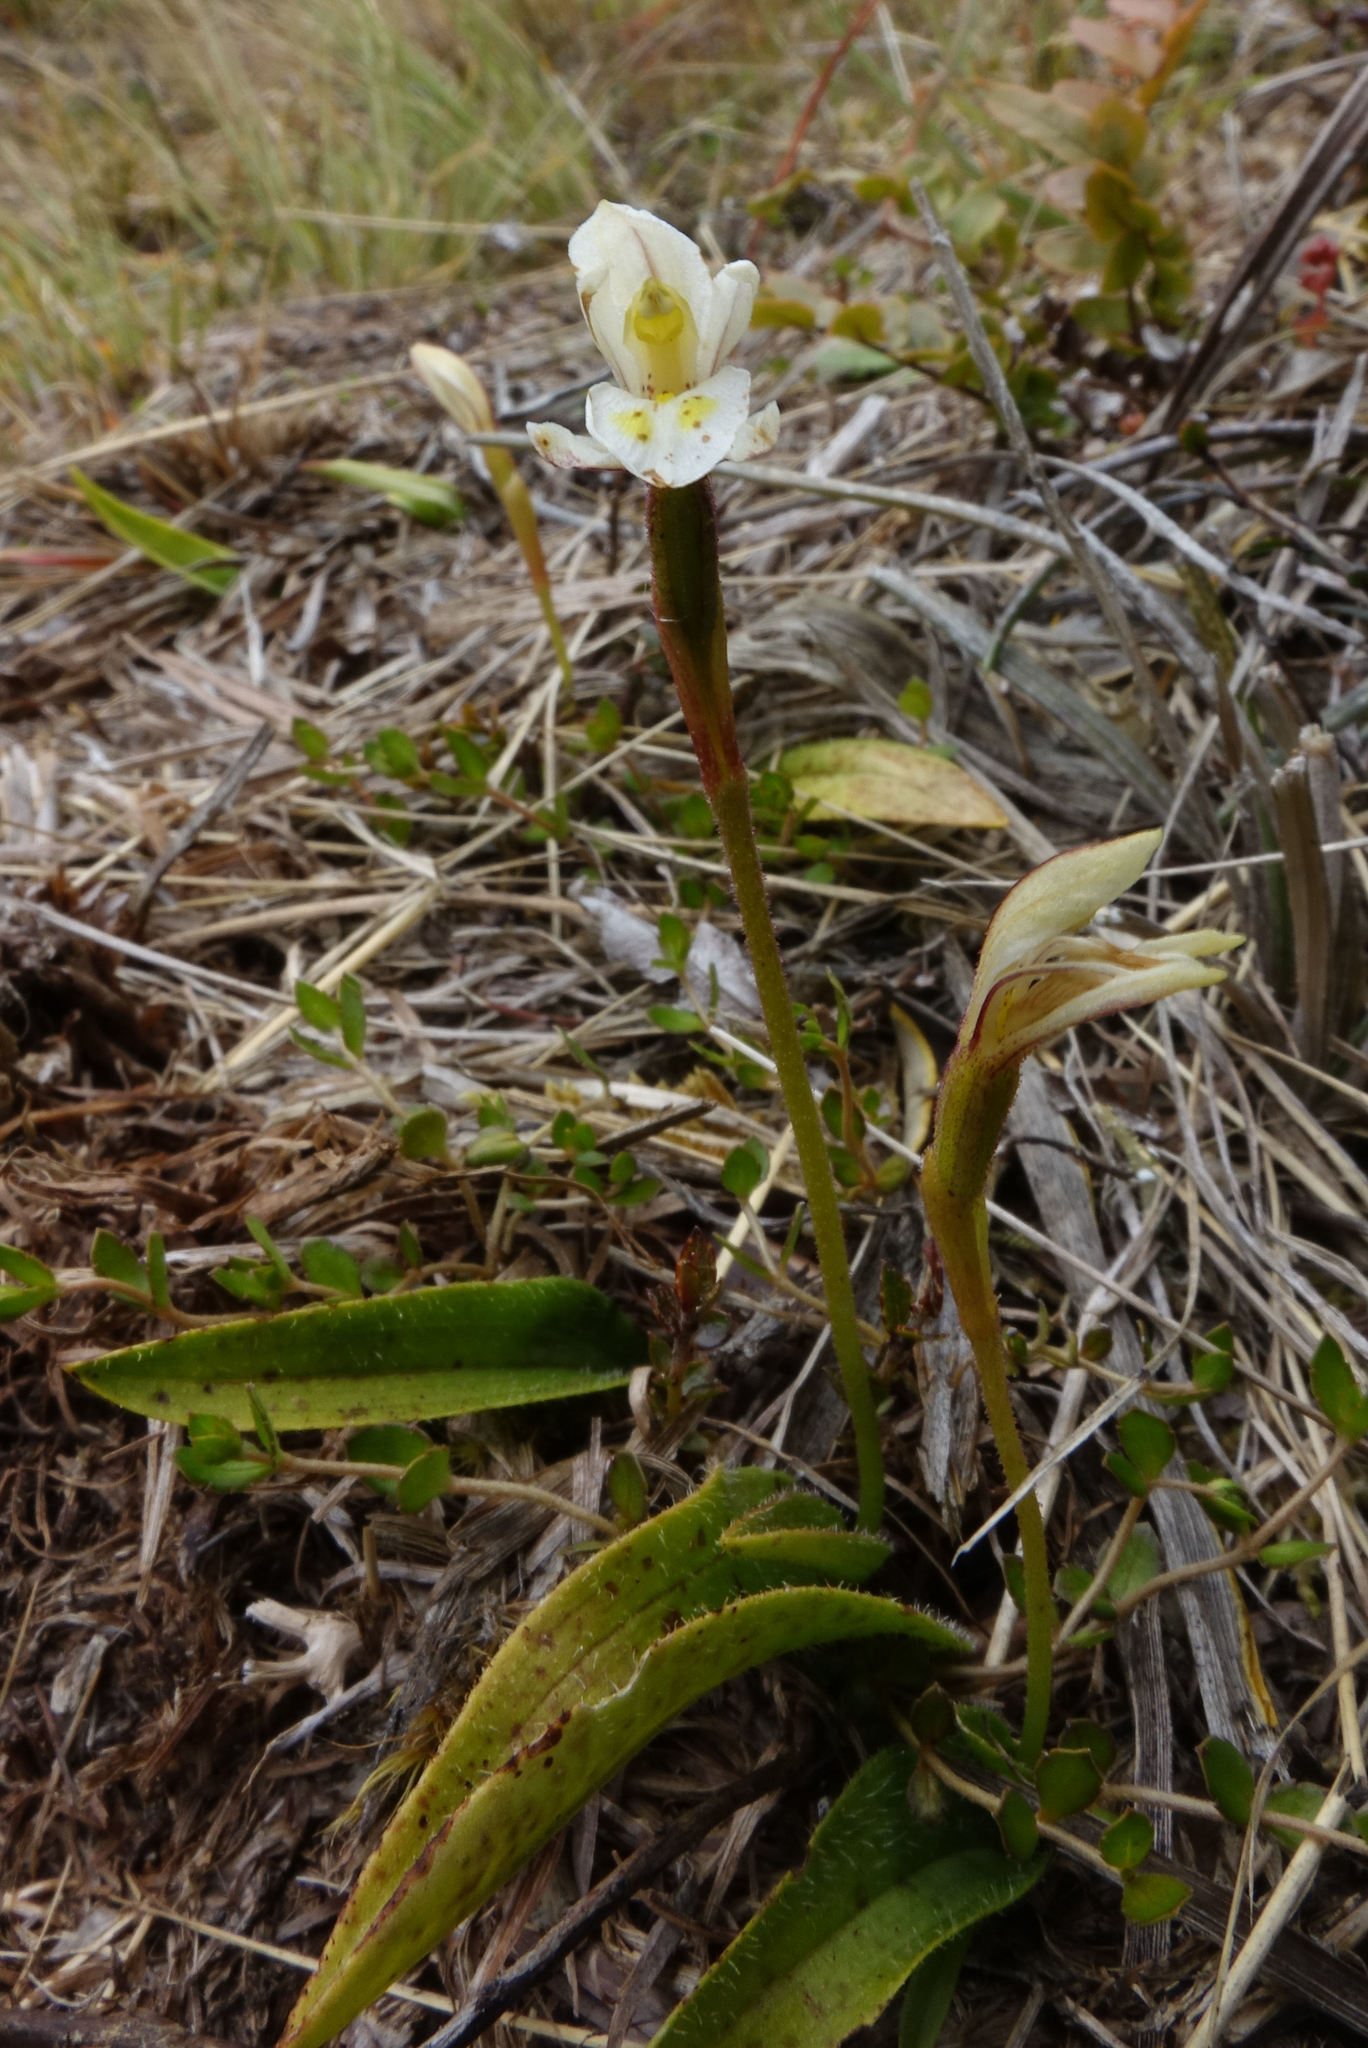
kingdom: Plantae
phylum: Tracheophyta
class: Liliopsida
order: Asparagales
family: Orchidaceae
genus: Aporostylis
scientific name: Aporostylis bifolia
